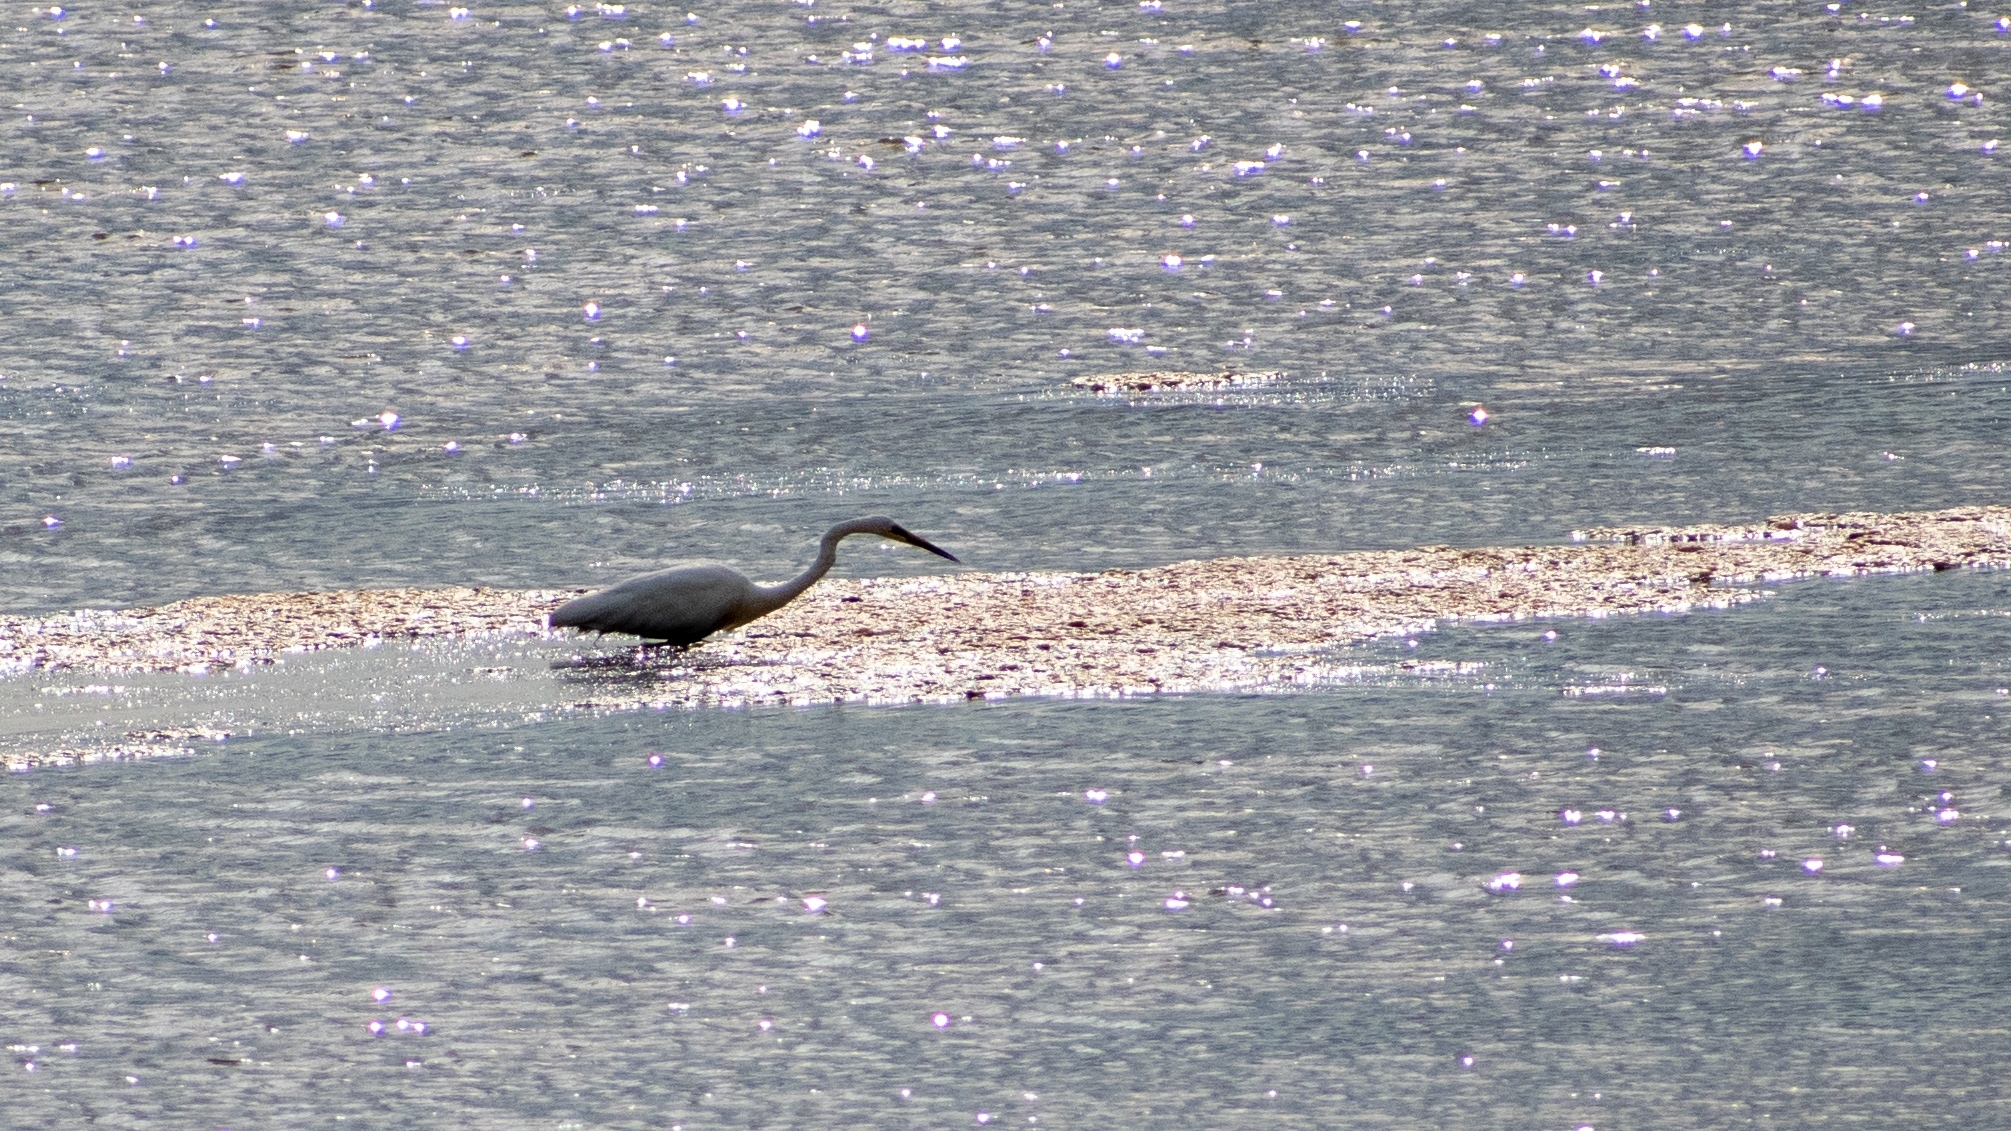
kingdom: Animalia
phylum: Chordata
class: Aves
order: Pelecaniformes
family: Ardeidae
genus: Ardea
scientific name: Ardea alba
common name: Great egret
